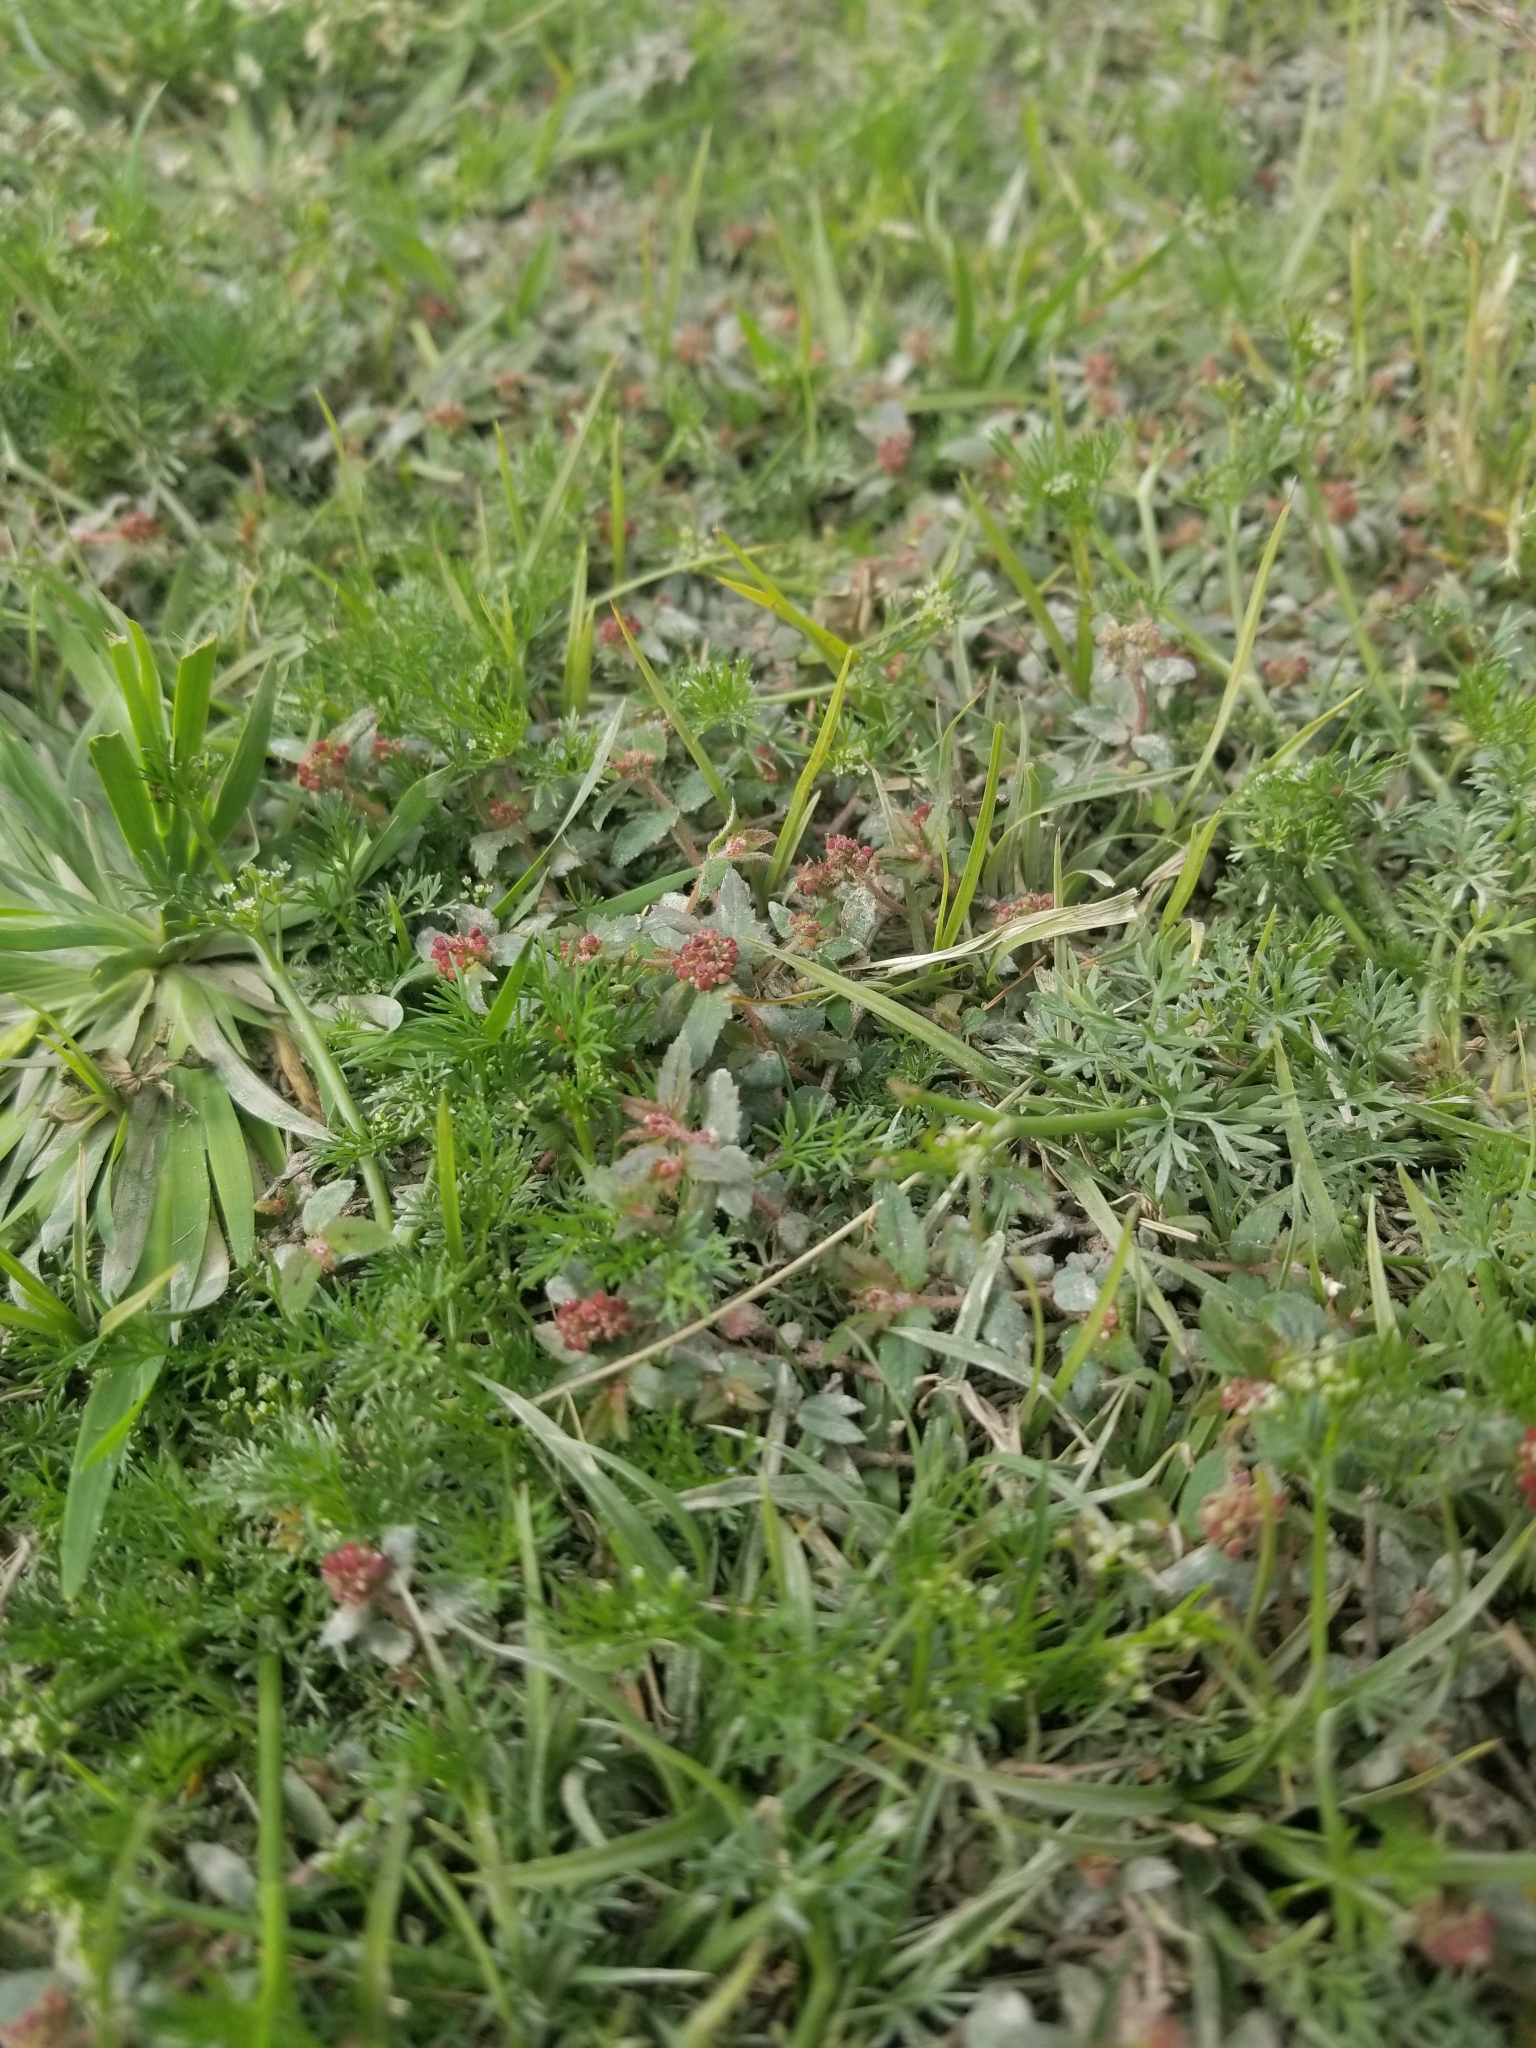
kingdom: Plantae
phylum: Tracheophyta
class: Magnoliopsida
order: Malpighiales
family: Euphorbiaceae
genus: Euphorbia
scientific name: Euphorbia ophthalmica
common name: Florida hammock sandmat
